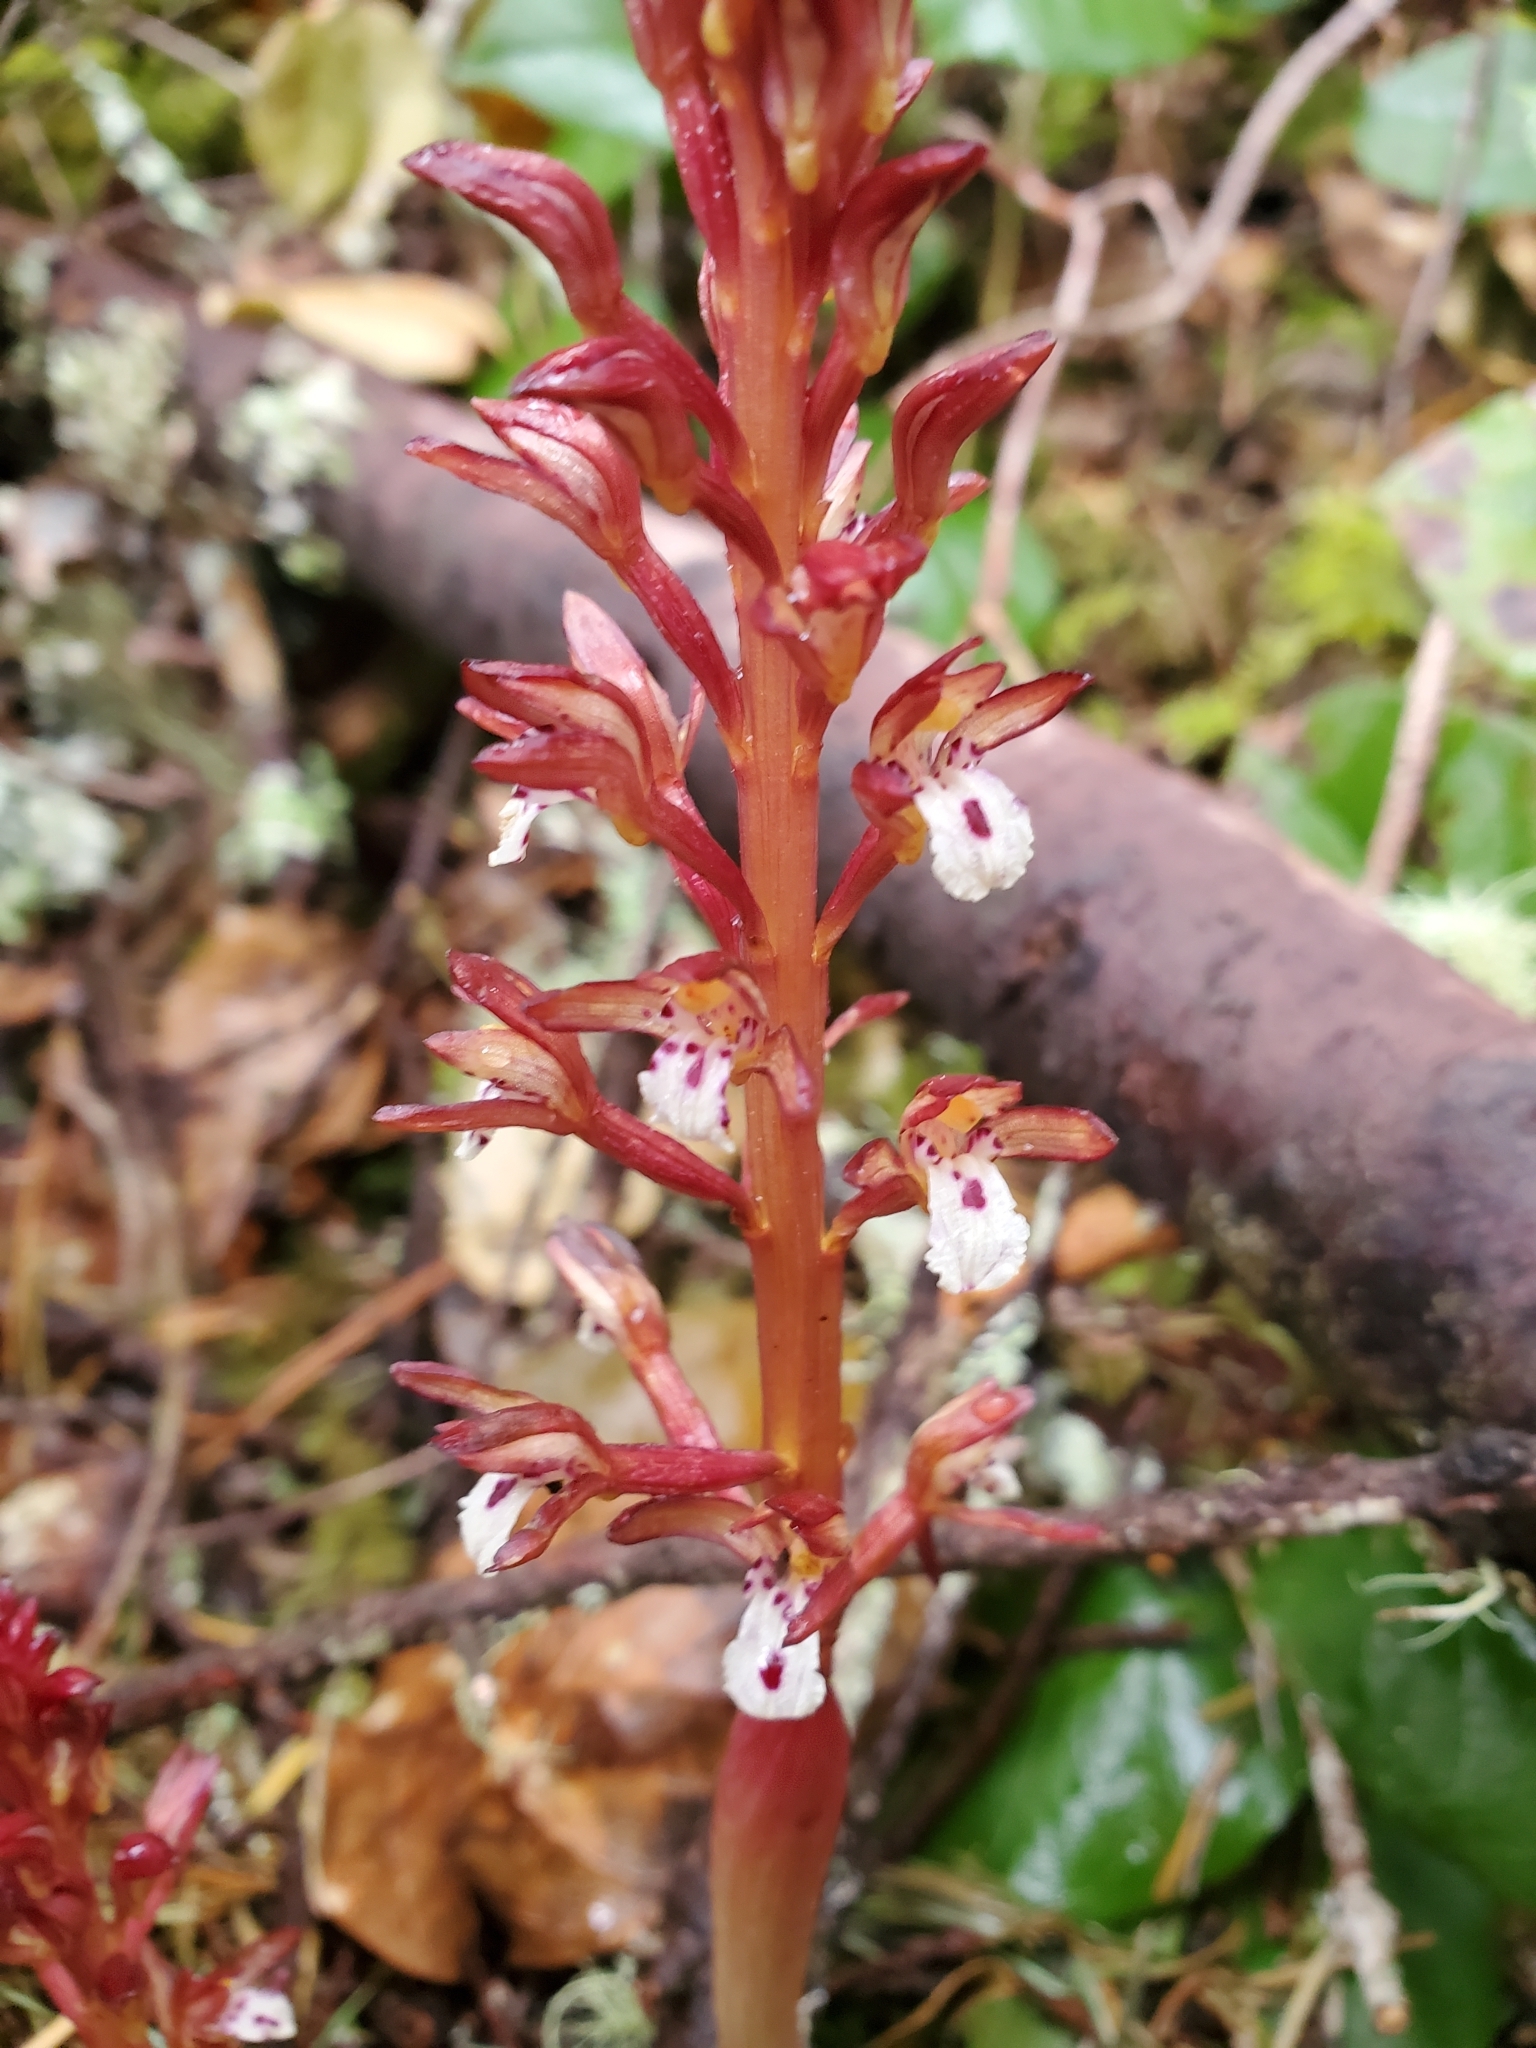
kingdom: Plantae
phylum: Tracheophyta
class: Liliopsida
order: Asparagales
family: Orchidaceae
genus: Corallorhiza
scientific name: Corallorhiza maculata
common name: Spotted coralroot
